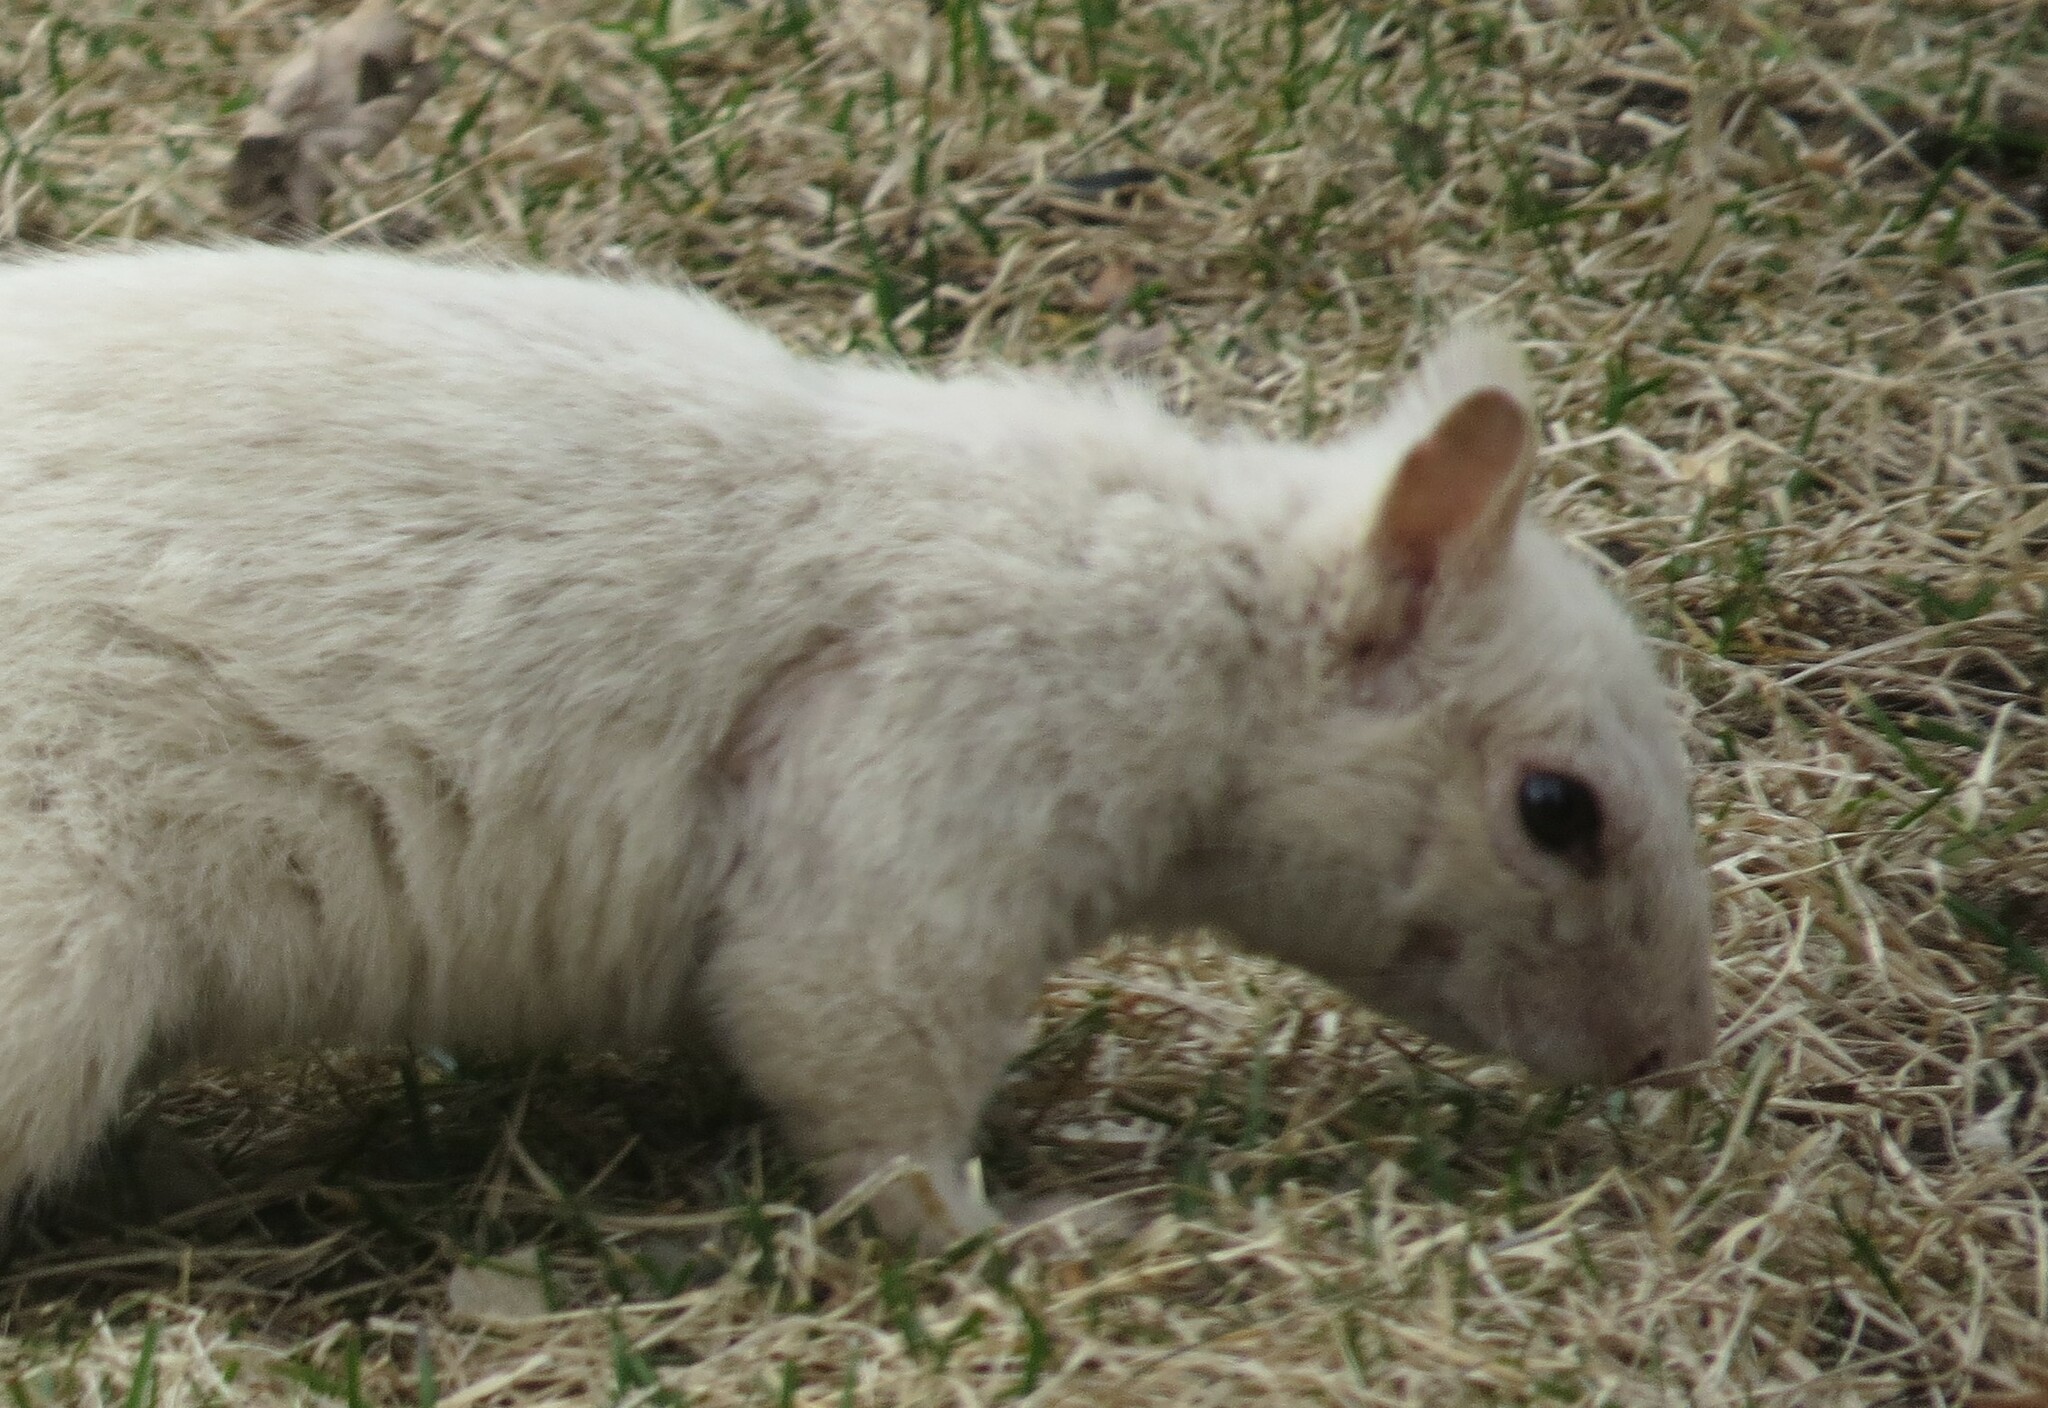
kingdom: Animalia
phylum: Chordata
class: Mammalia
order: Rodentia
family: Sciuridae
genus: Sciurus
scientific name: Sciurus carolinensis
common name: Eastern gray squirrel
